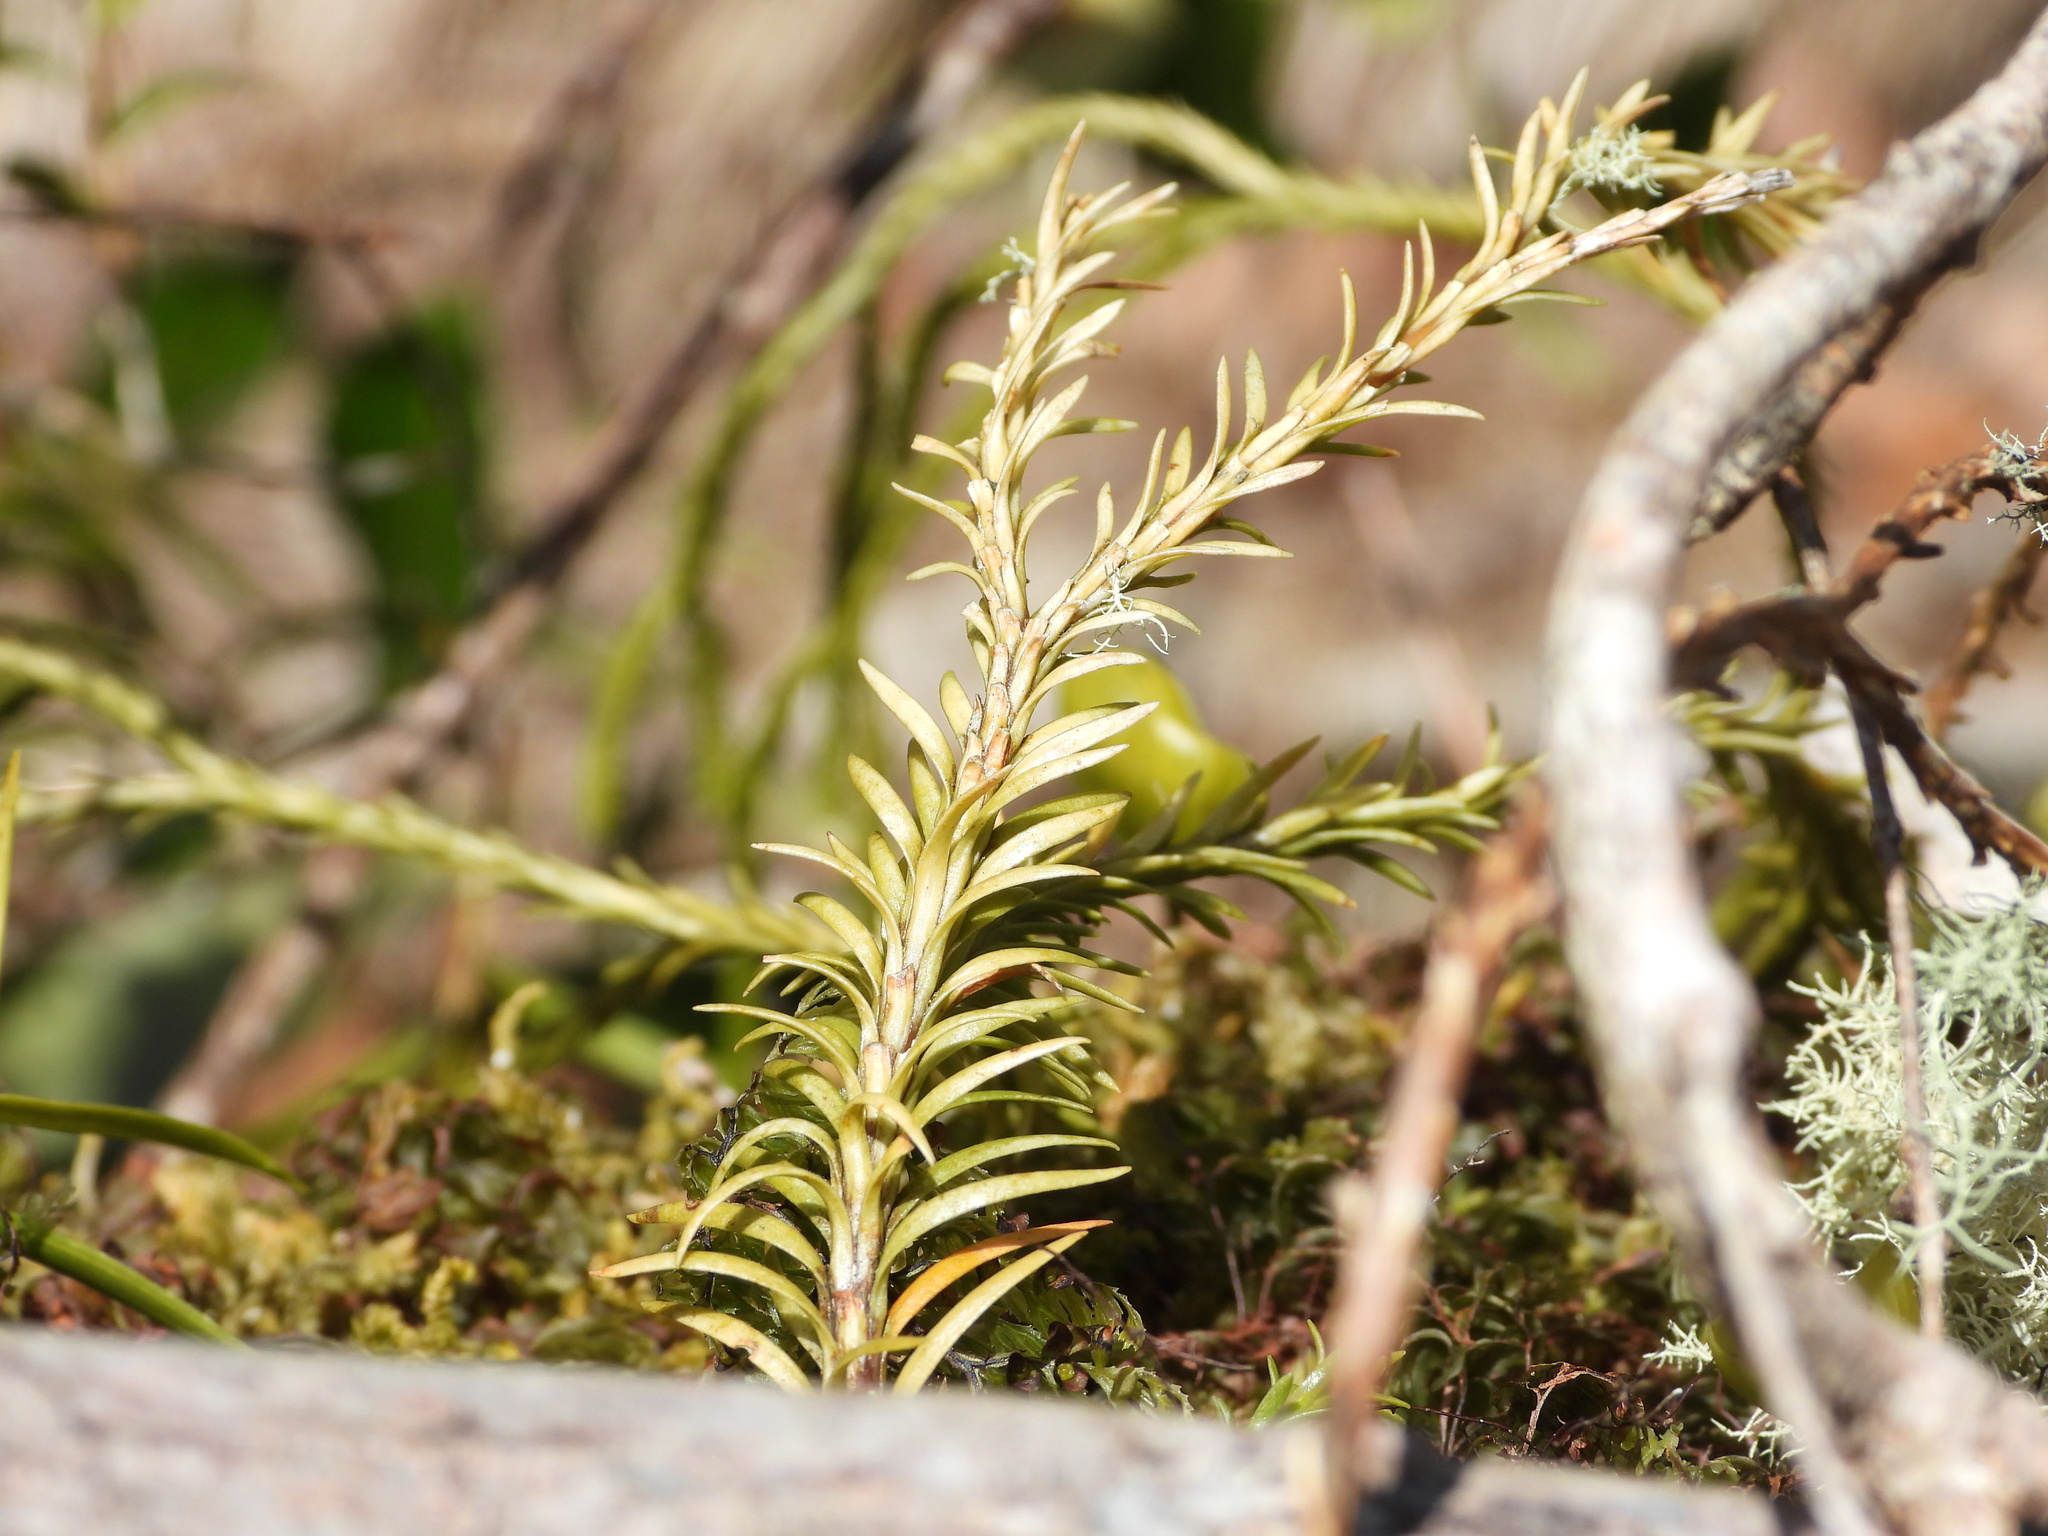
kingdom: Plantae
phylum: Tracheophyta
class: Lycopodiopsida
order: Lycopodiales
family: Lycopodiaceae
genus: Phlegmariurus
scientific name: Phlegmariurus varius
